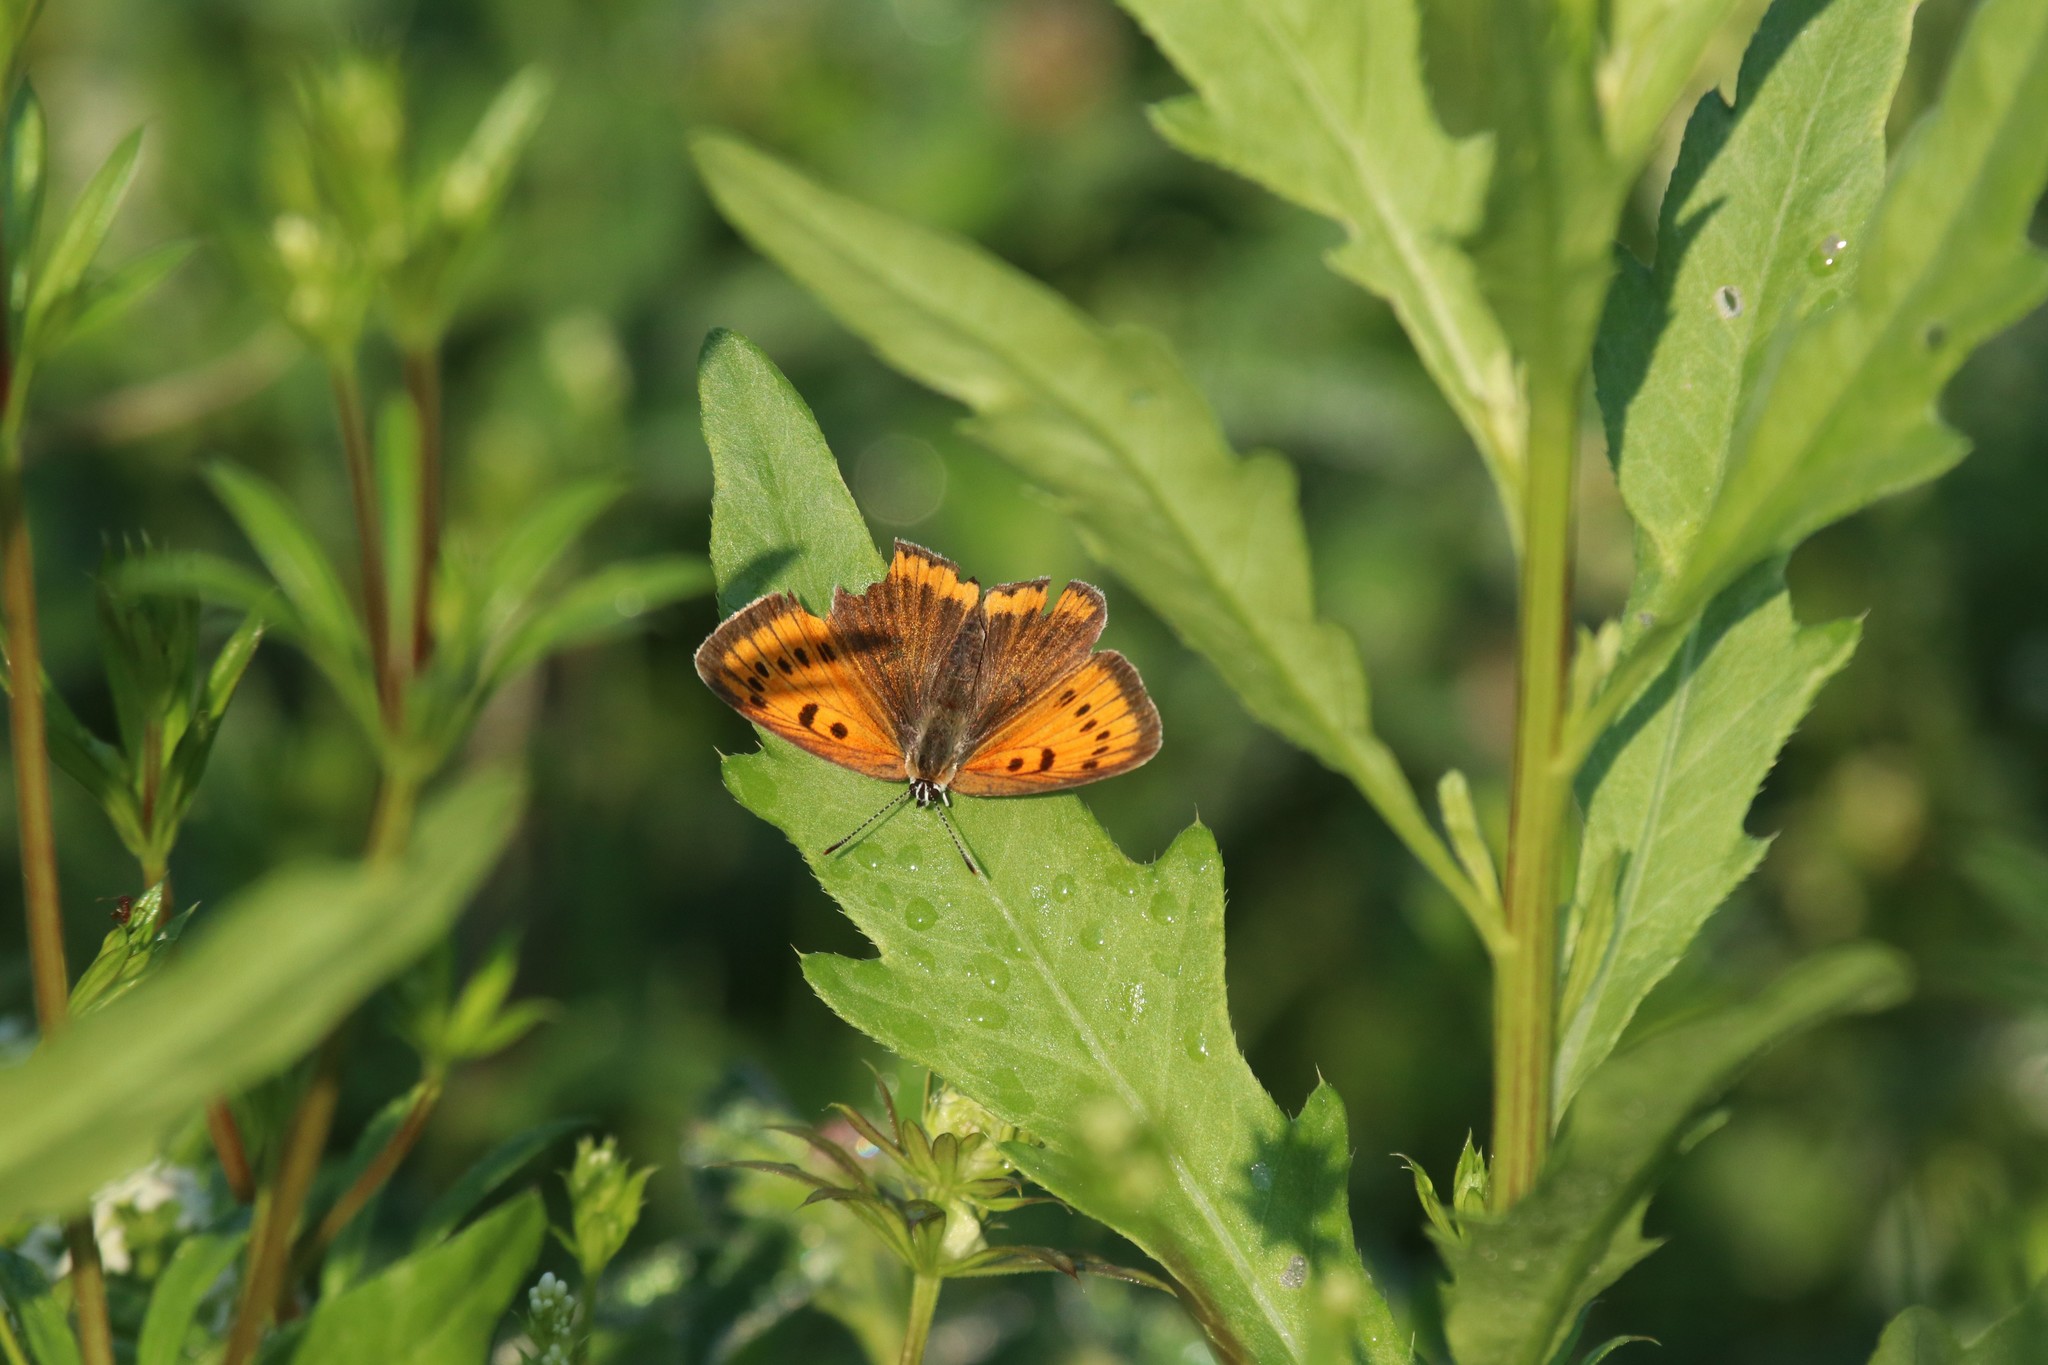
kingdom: Animalia
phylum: Arthropoda
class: Insecta
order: Lepidoptera
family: Lycaenidae
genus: Lycaena
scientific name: Lycaena dispar
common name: Large copper
